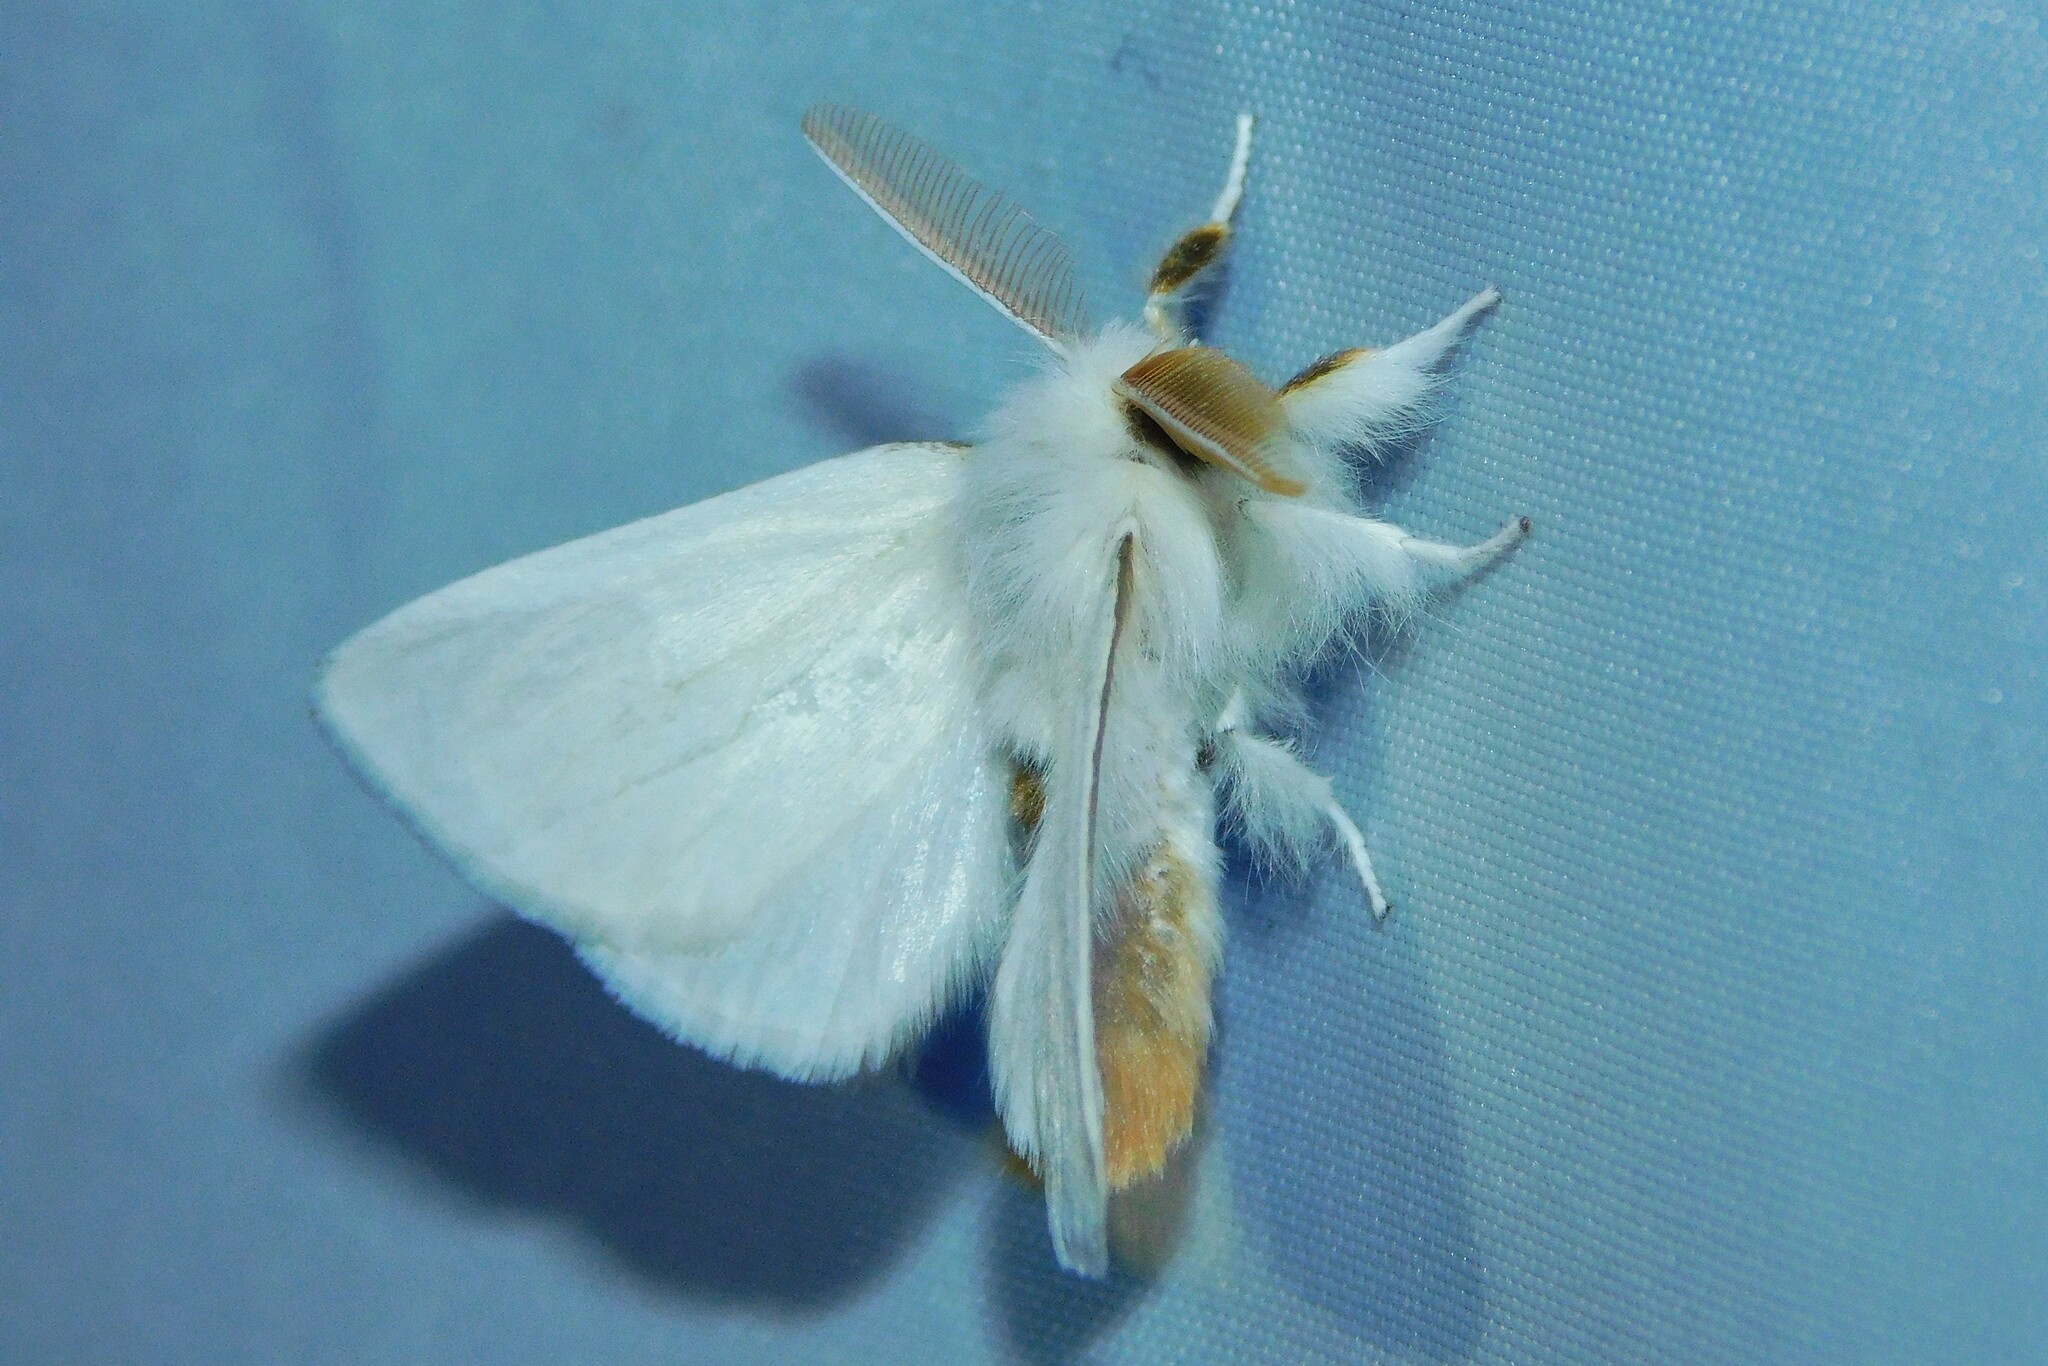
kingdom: Animalia
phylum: Arthropoda
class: Insecta
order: Lepidoptera
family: Erebidae
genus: Euproctis
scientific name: Euproctis chrysorrhoea
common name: Brown-tail
